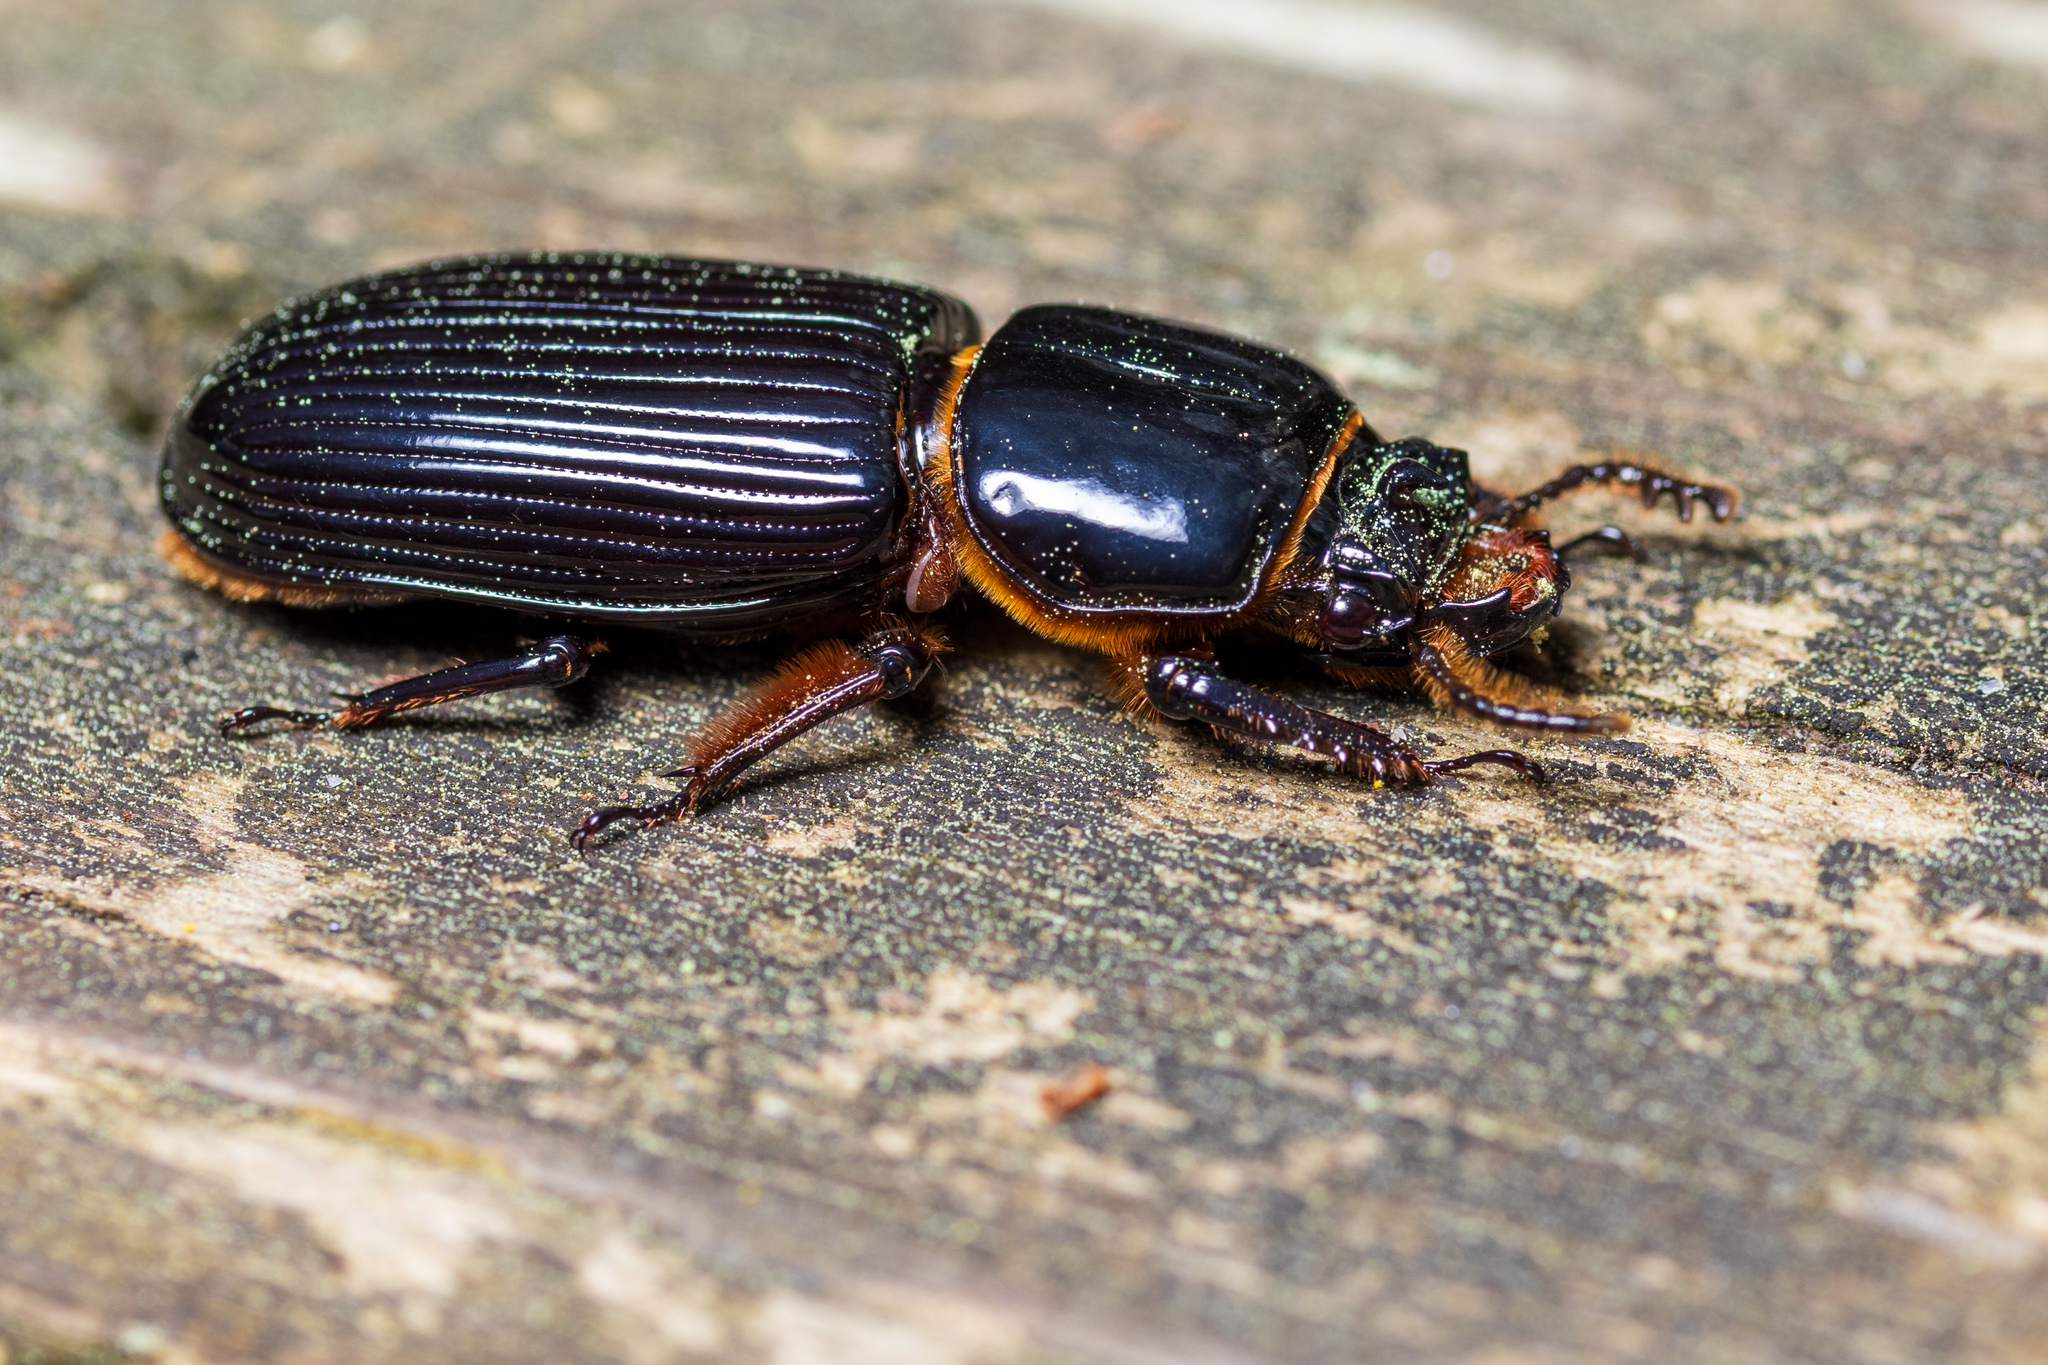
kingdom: Animalia
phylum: Arthropoda
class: Insecta
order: Coleoptera
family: Passalidae
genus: Odontotaenius
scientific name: Odontotaenius disjunctus
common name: Patent leather beetle
